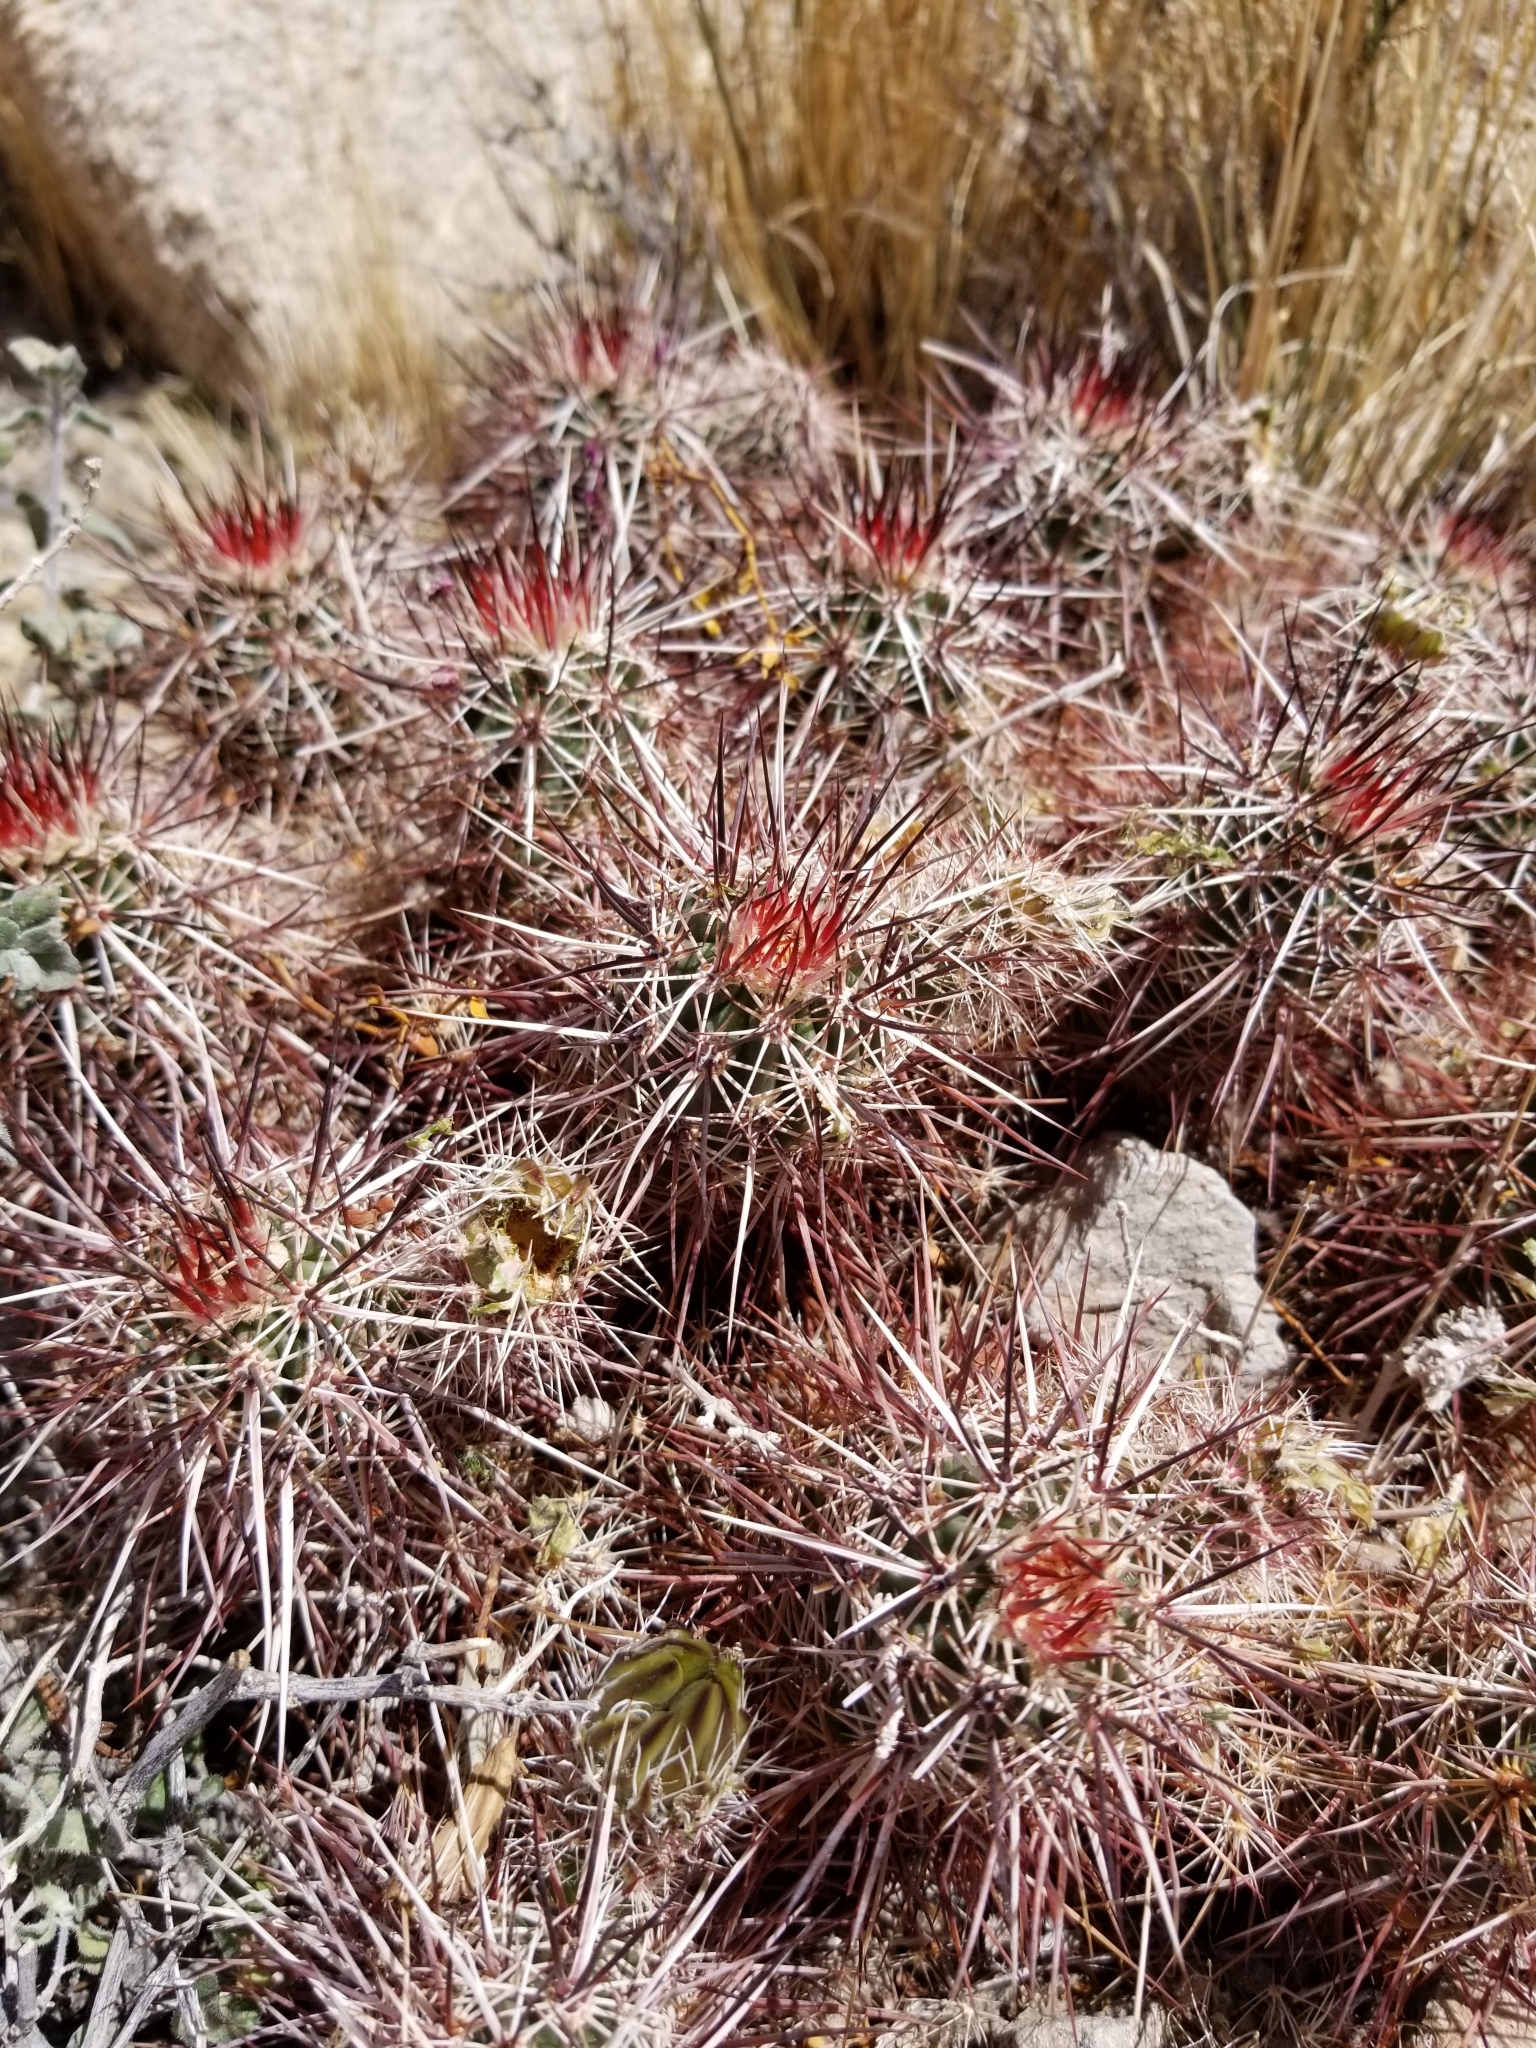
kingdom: Plantae
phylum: Tracheophyta
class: Magnoliopsida
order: Caryophyllales
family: Cactaceae
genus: Echinocereus
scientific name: Echinocereus engelmannii
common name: Engelmann's hedgehog cactus
